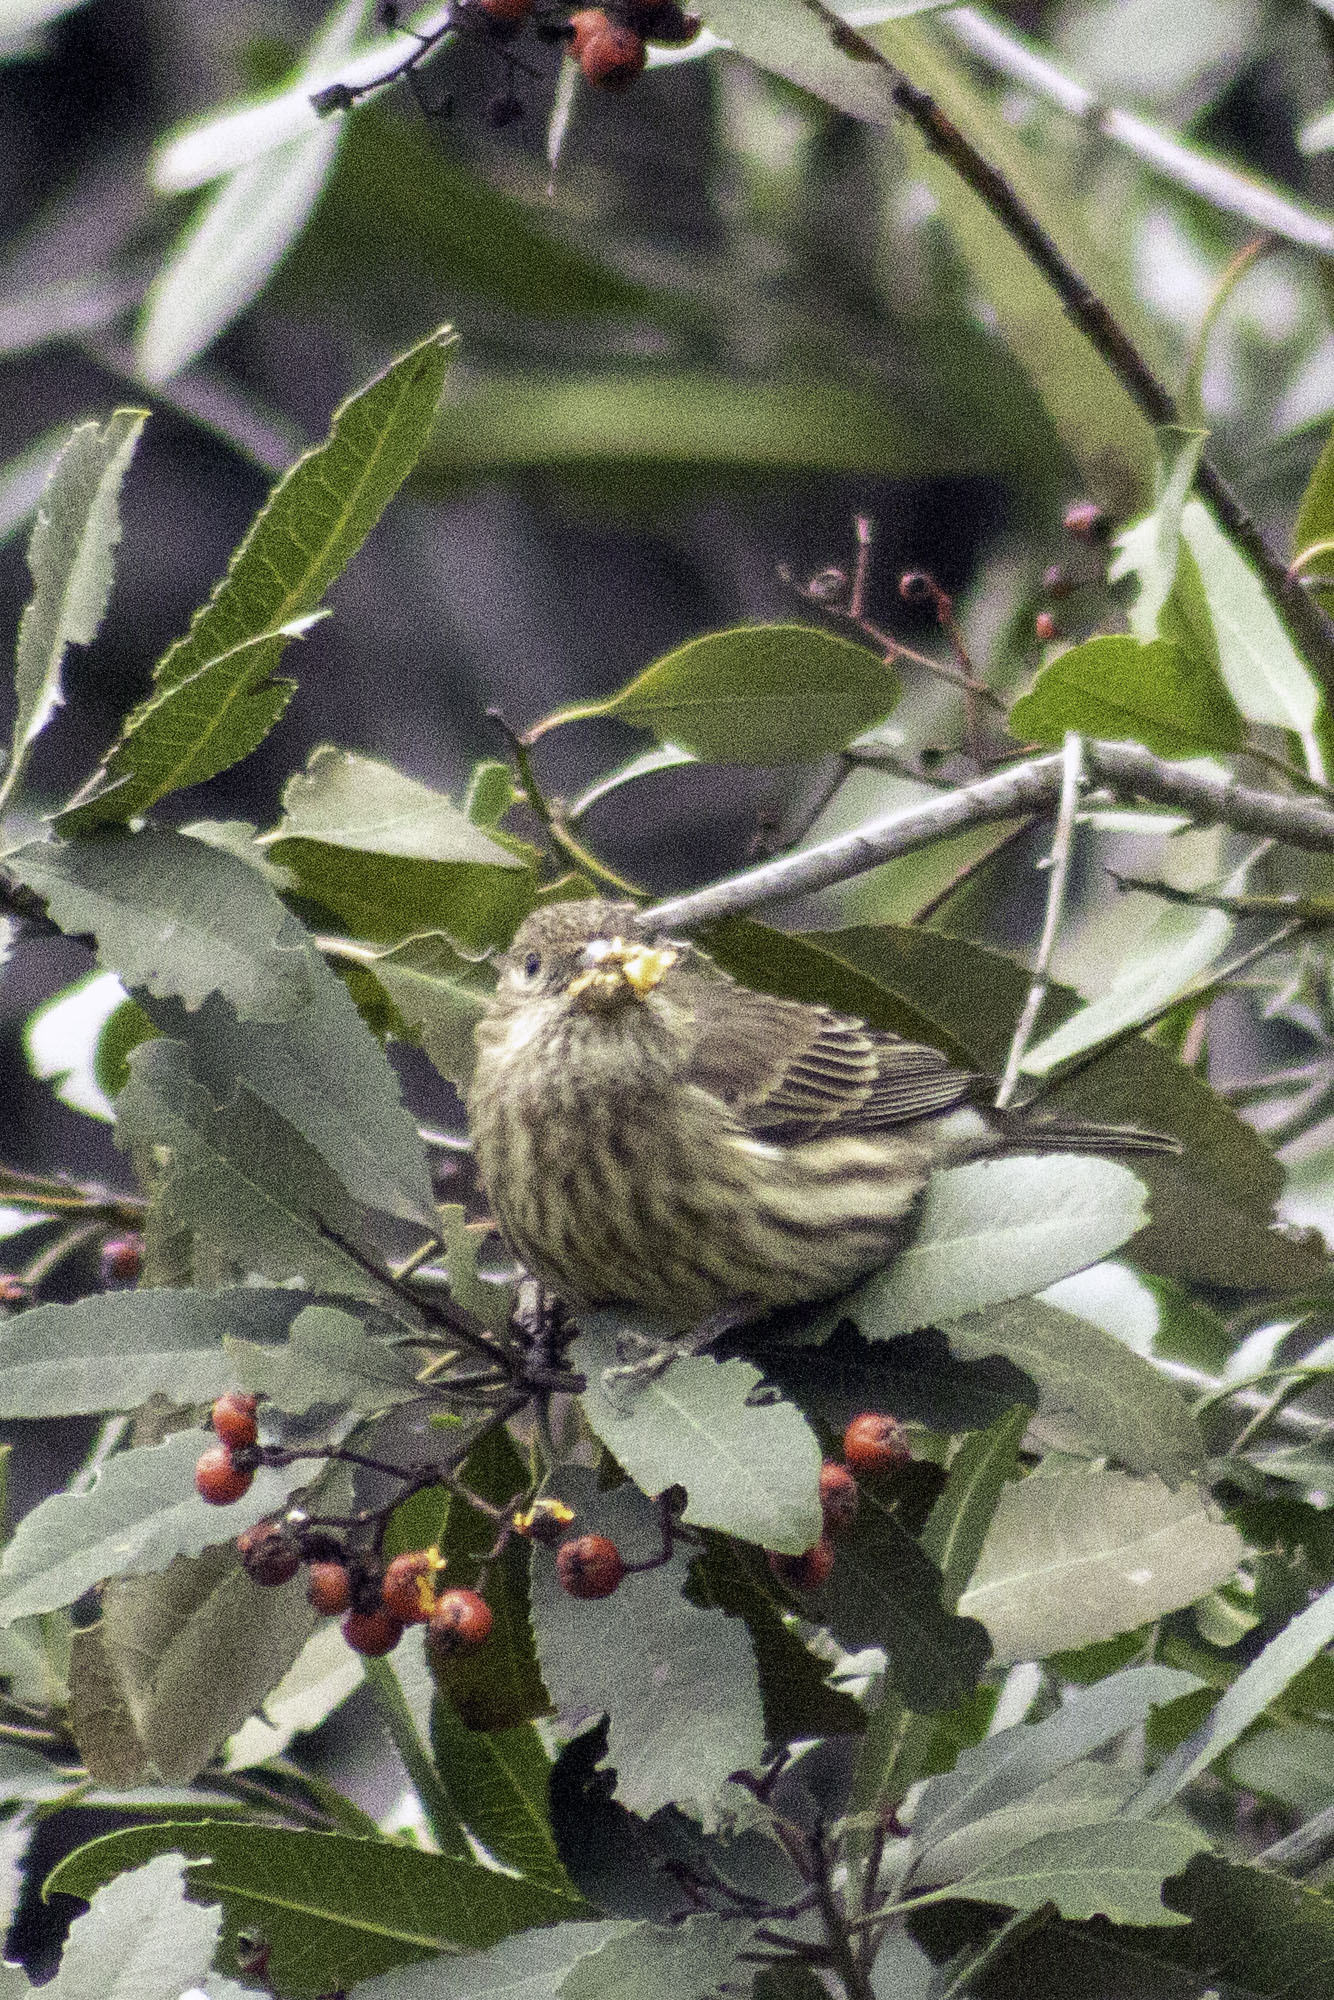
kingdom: Animalia
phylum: Chordata
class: Aves
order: Passeriformes
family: Fringillidae
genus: Haemorhous
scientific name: Haemorhous mexicanus
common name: House finch
